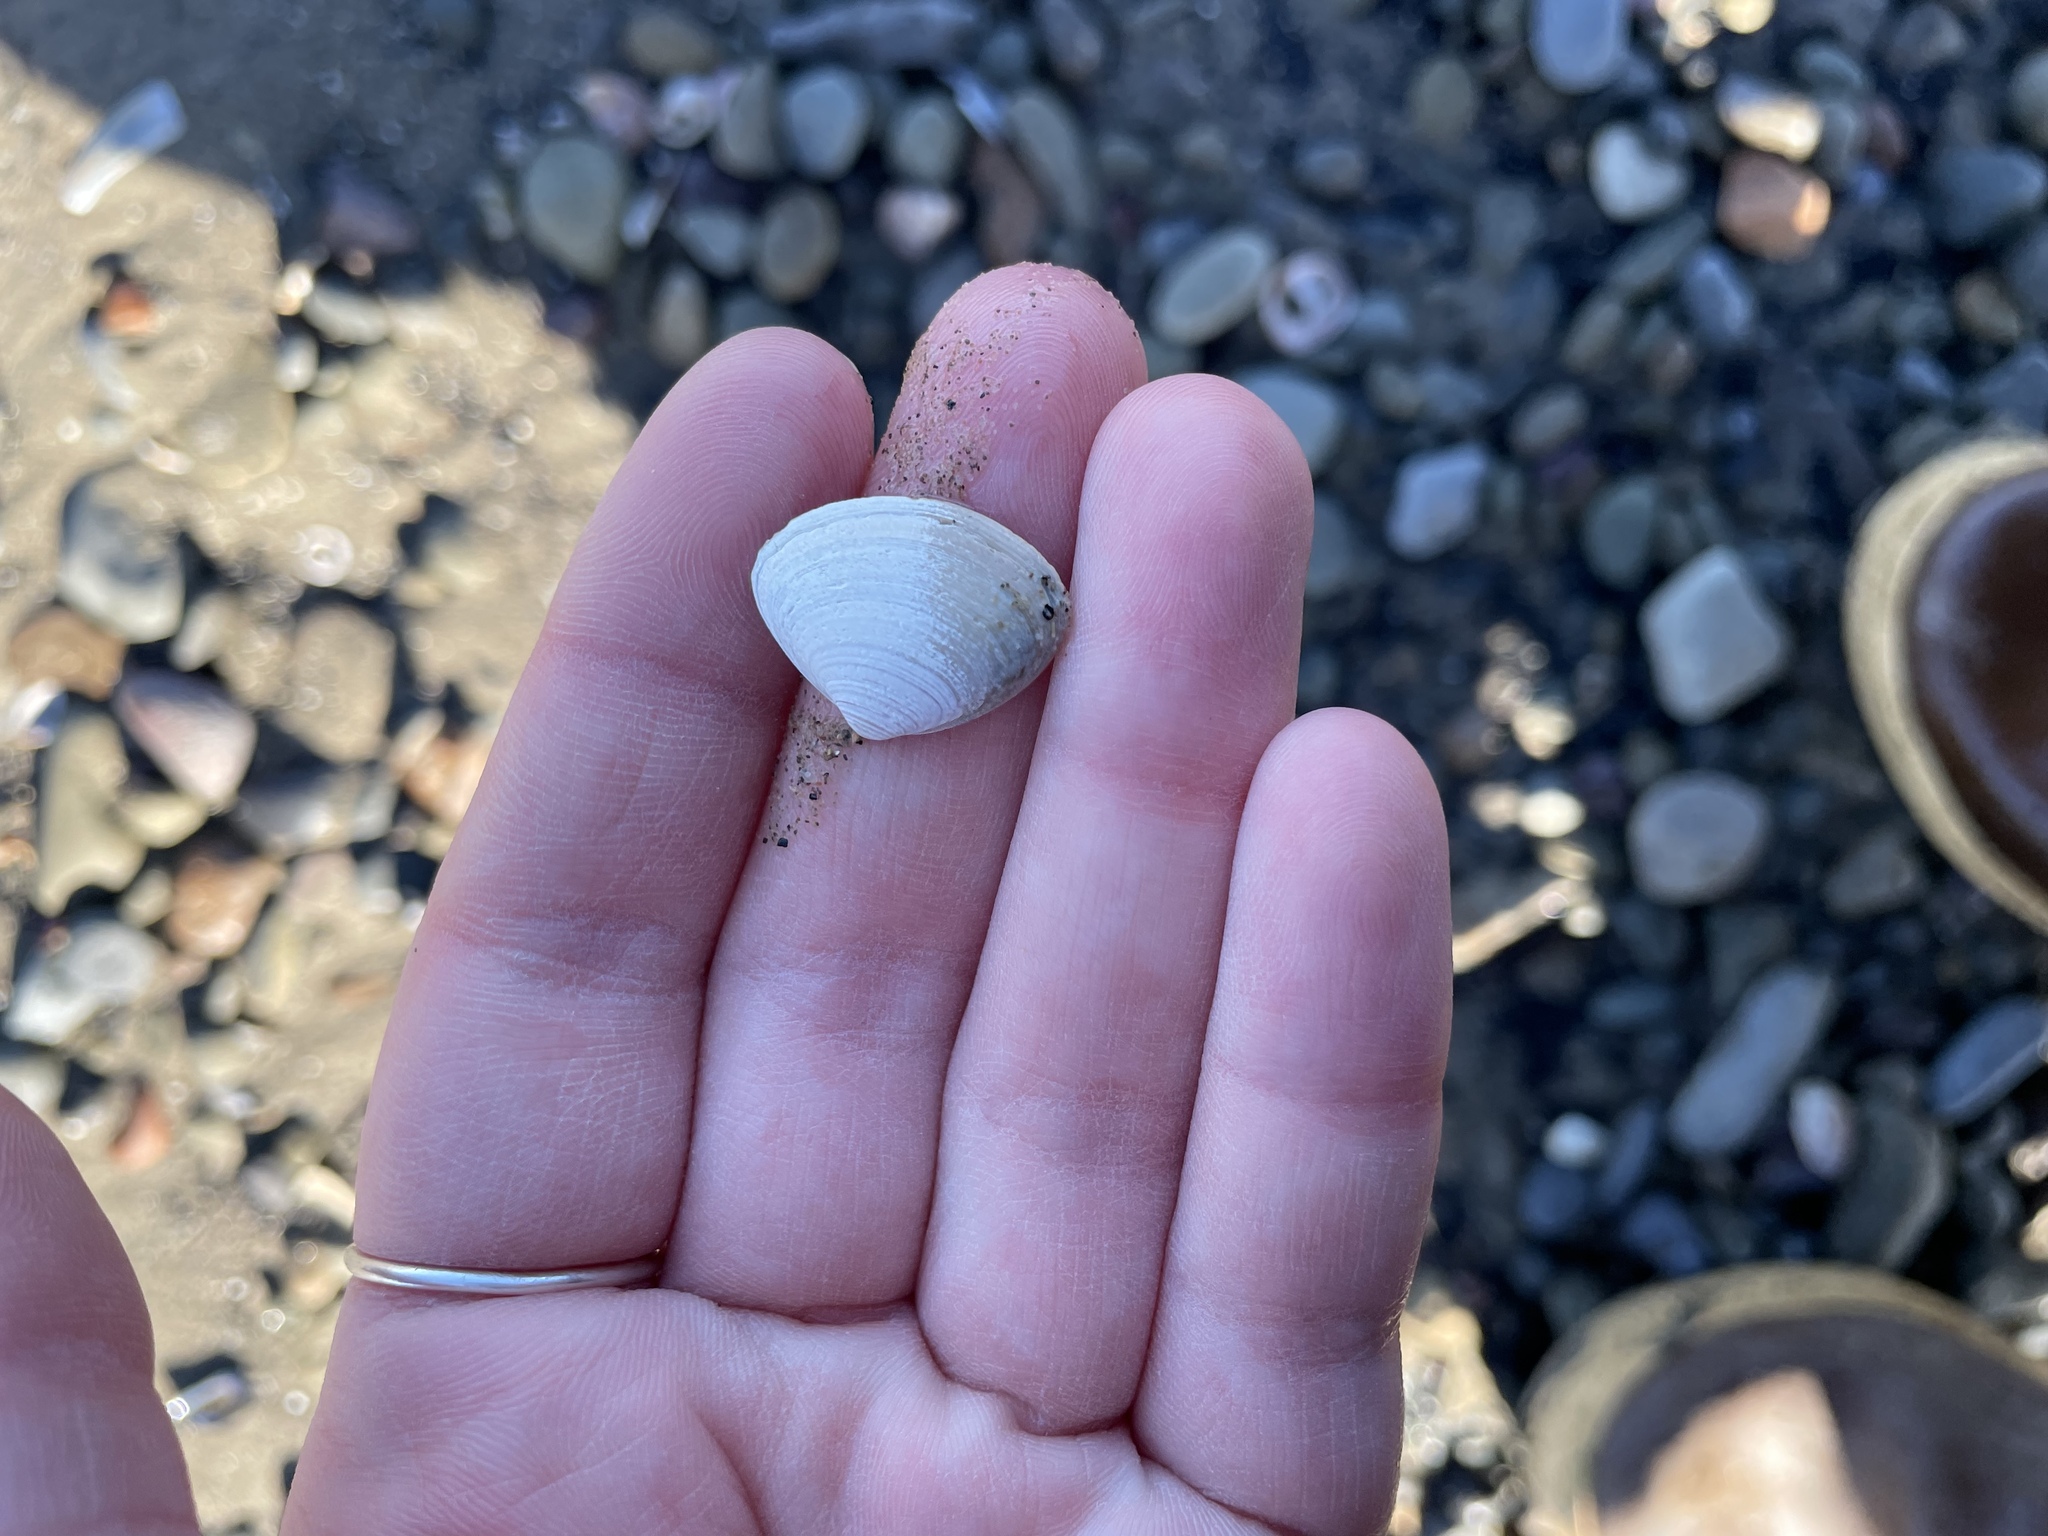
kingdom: Animalia
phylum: Mollusca
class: Bivalvia
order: Venerida
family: Mactridae
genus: Spisula
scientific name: Spisula solidissima
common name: Atlantic surf clam
